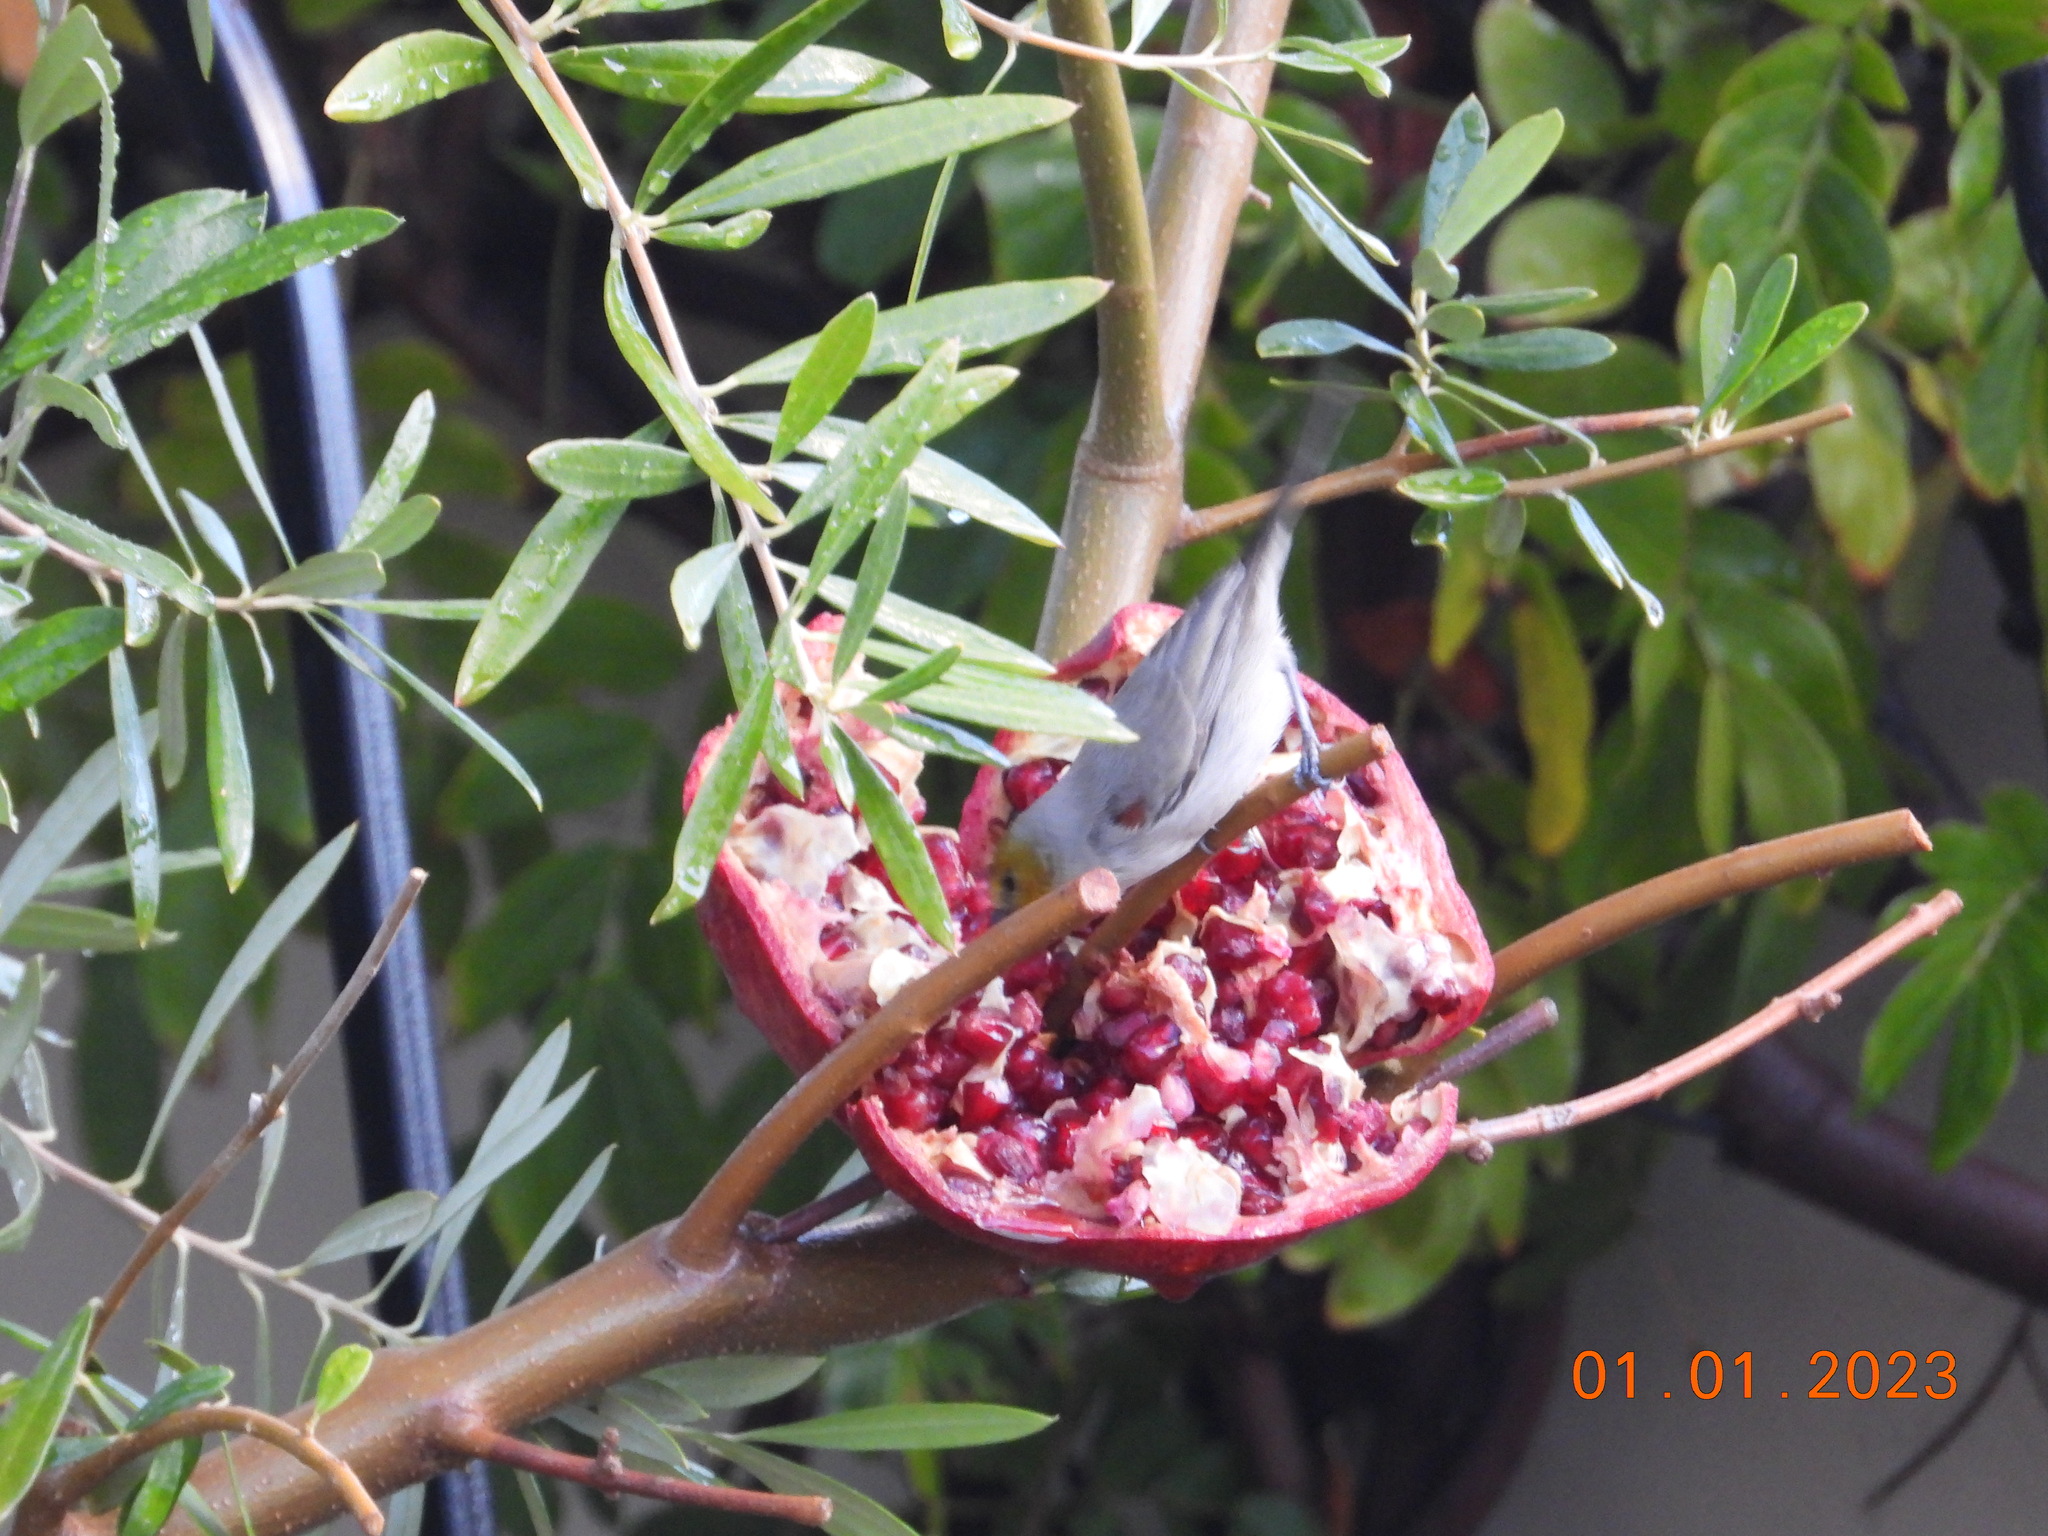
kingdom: Animalia
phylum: Chordata
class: Aves
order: Passeriformes
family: Remizidae
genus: Auriparus
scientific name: Auriparus flaviceps
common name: Verdin
